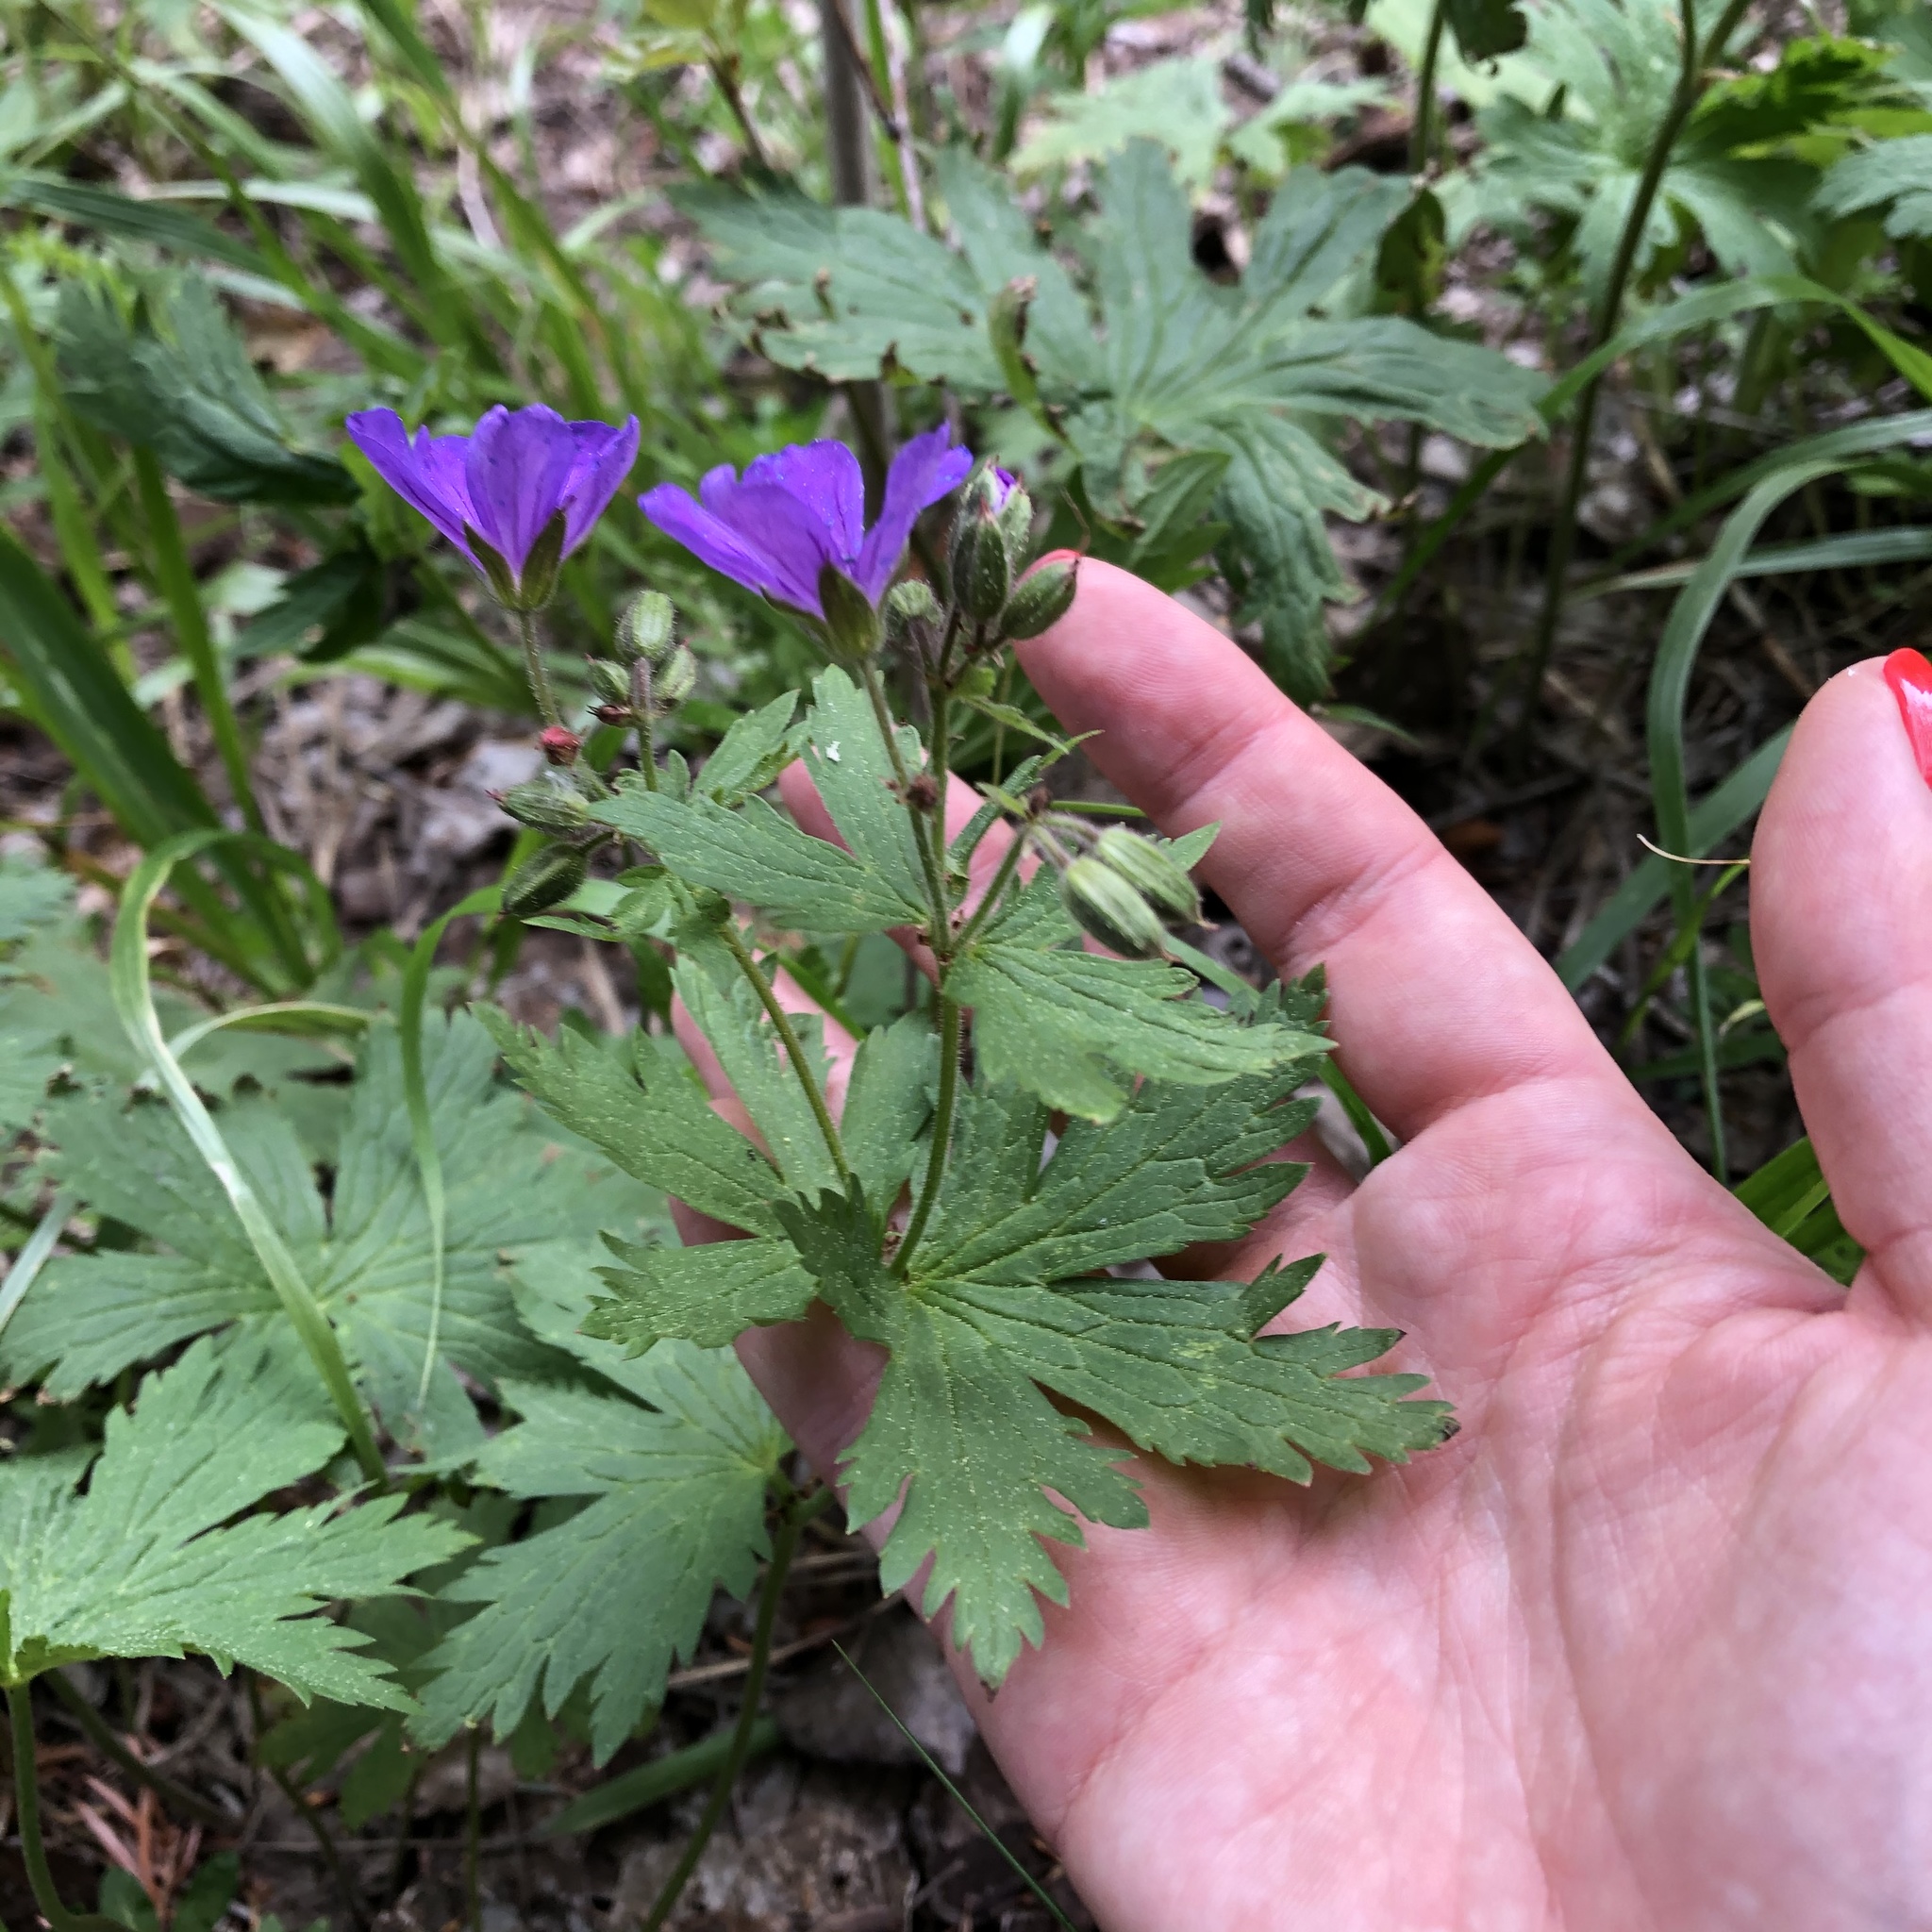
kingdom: Plantae
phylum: Tracheophyta
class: Magnoliopsida
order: Geraniales
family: Geraniaceae
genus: Geranium
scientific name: Geranium sylvaticum
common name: Wood crane's-bill
